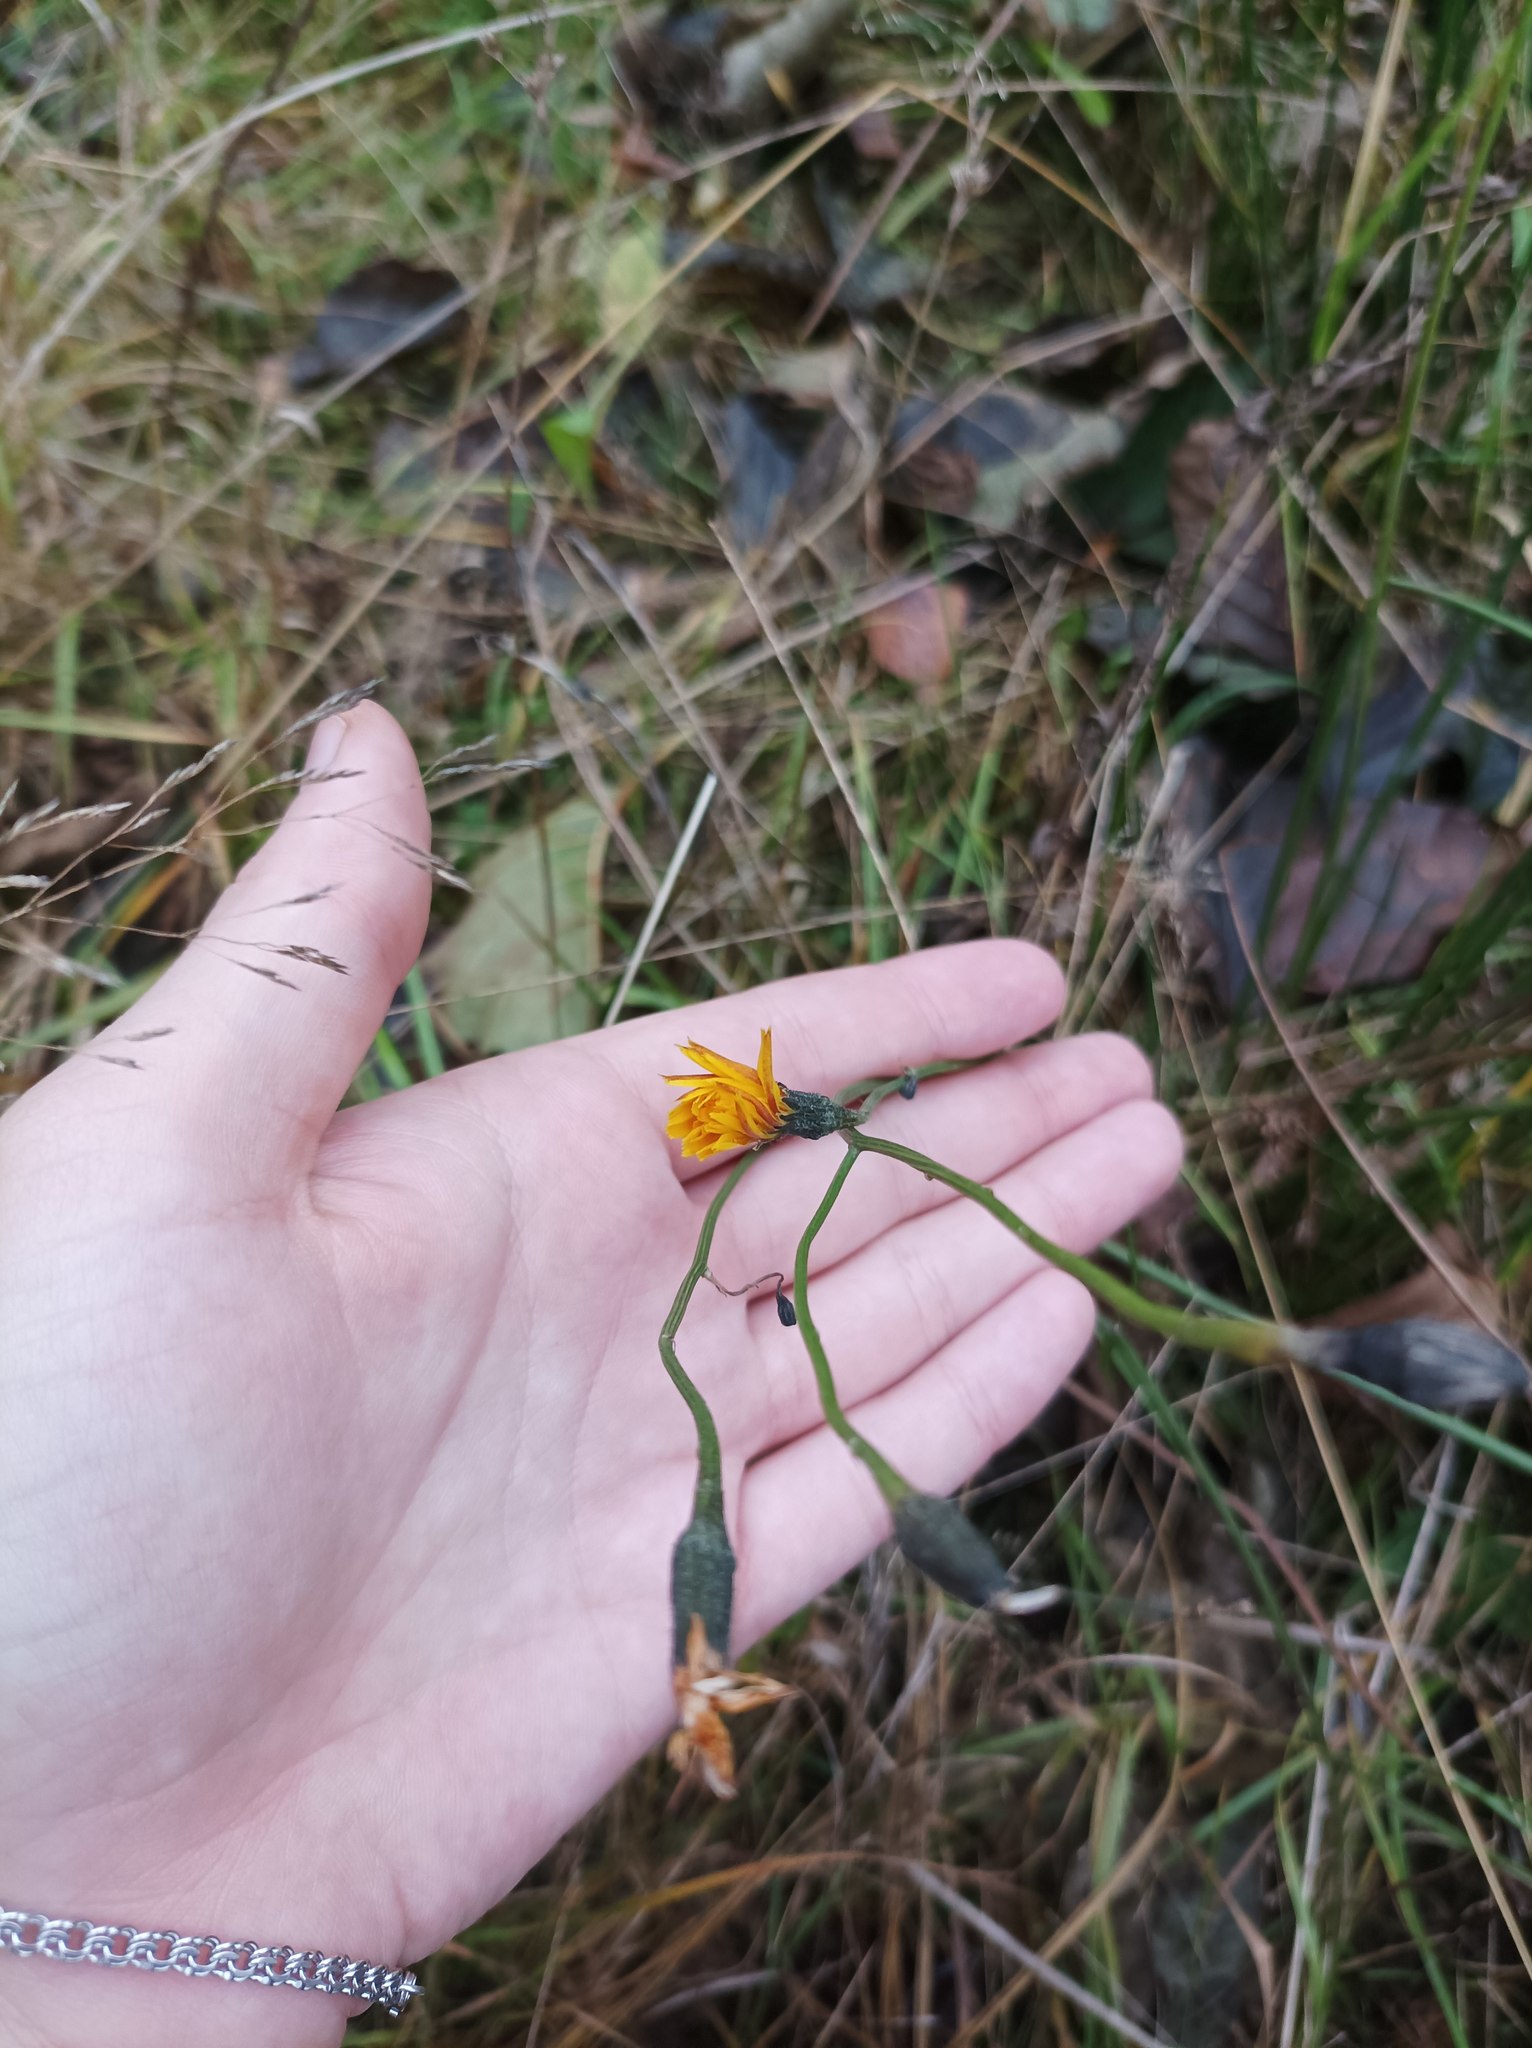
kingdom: Plantae
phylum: Tracheophyta
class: Magnoliopsida
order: Asterales
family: Asteraceae
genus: Scorzoneroides
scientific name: Scorzoneroides autumnalis
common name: Autumn hawkbit
